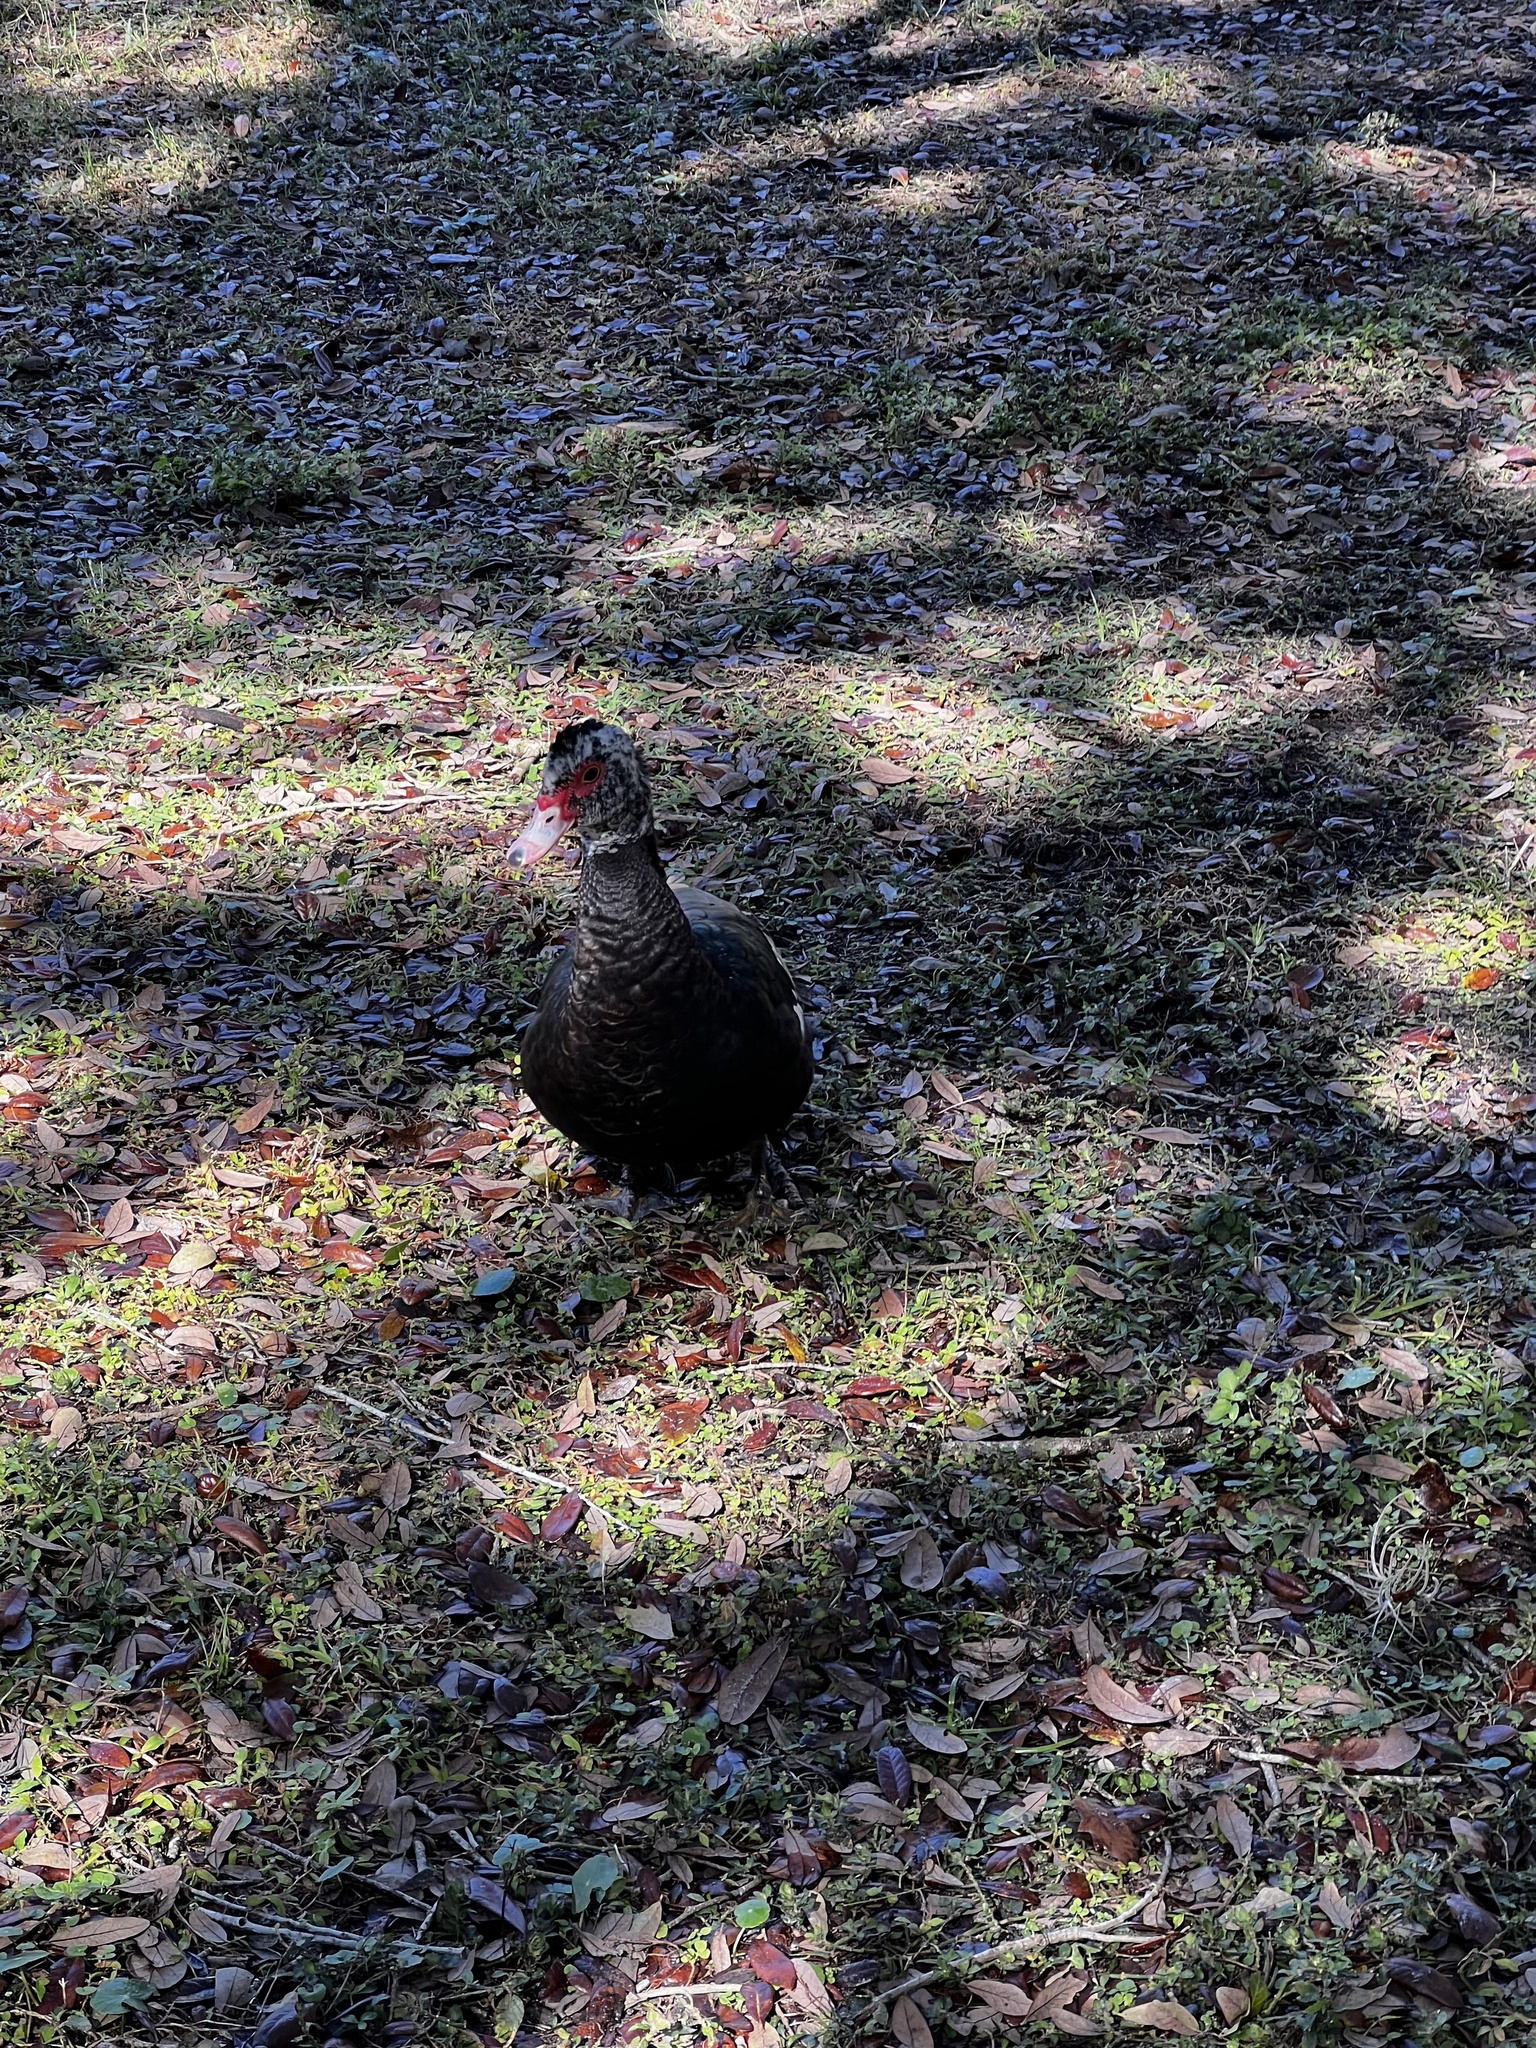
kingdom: Animalia
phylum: Chordata
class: Aves
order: Anseriformes
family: Anatidae
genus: Cairina
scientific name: Cairina moschata
